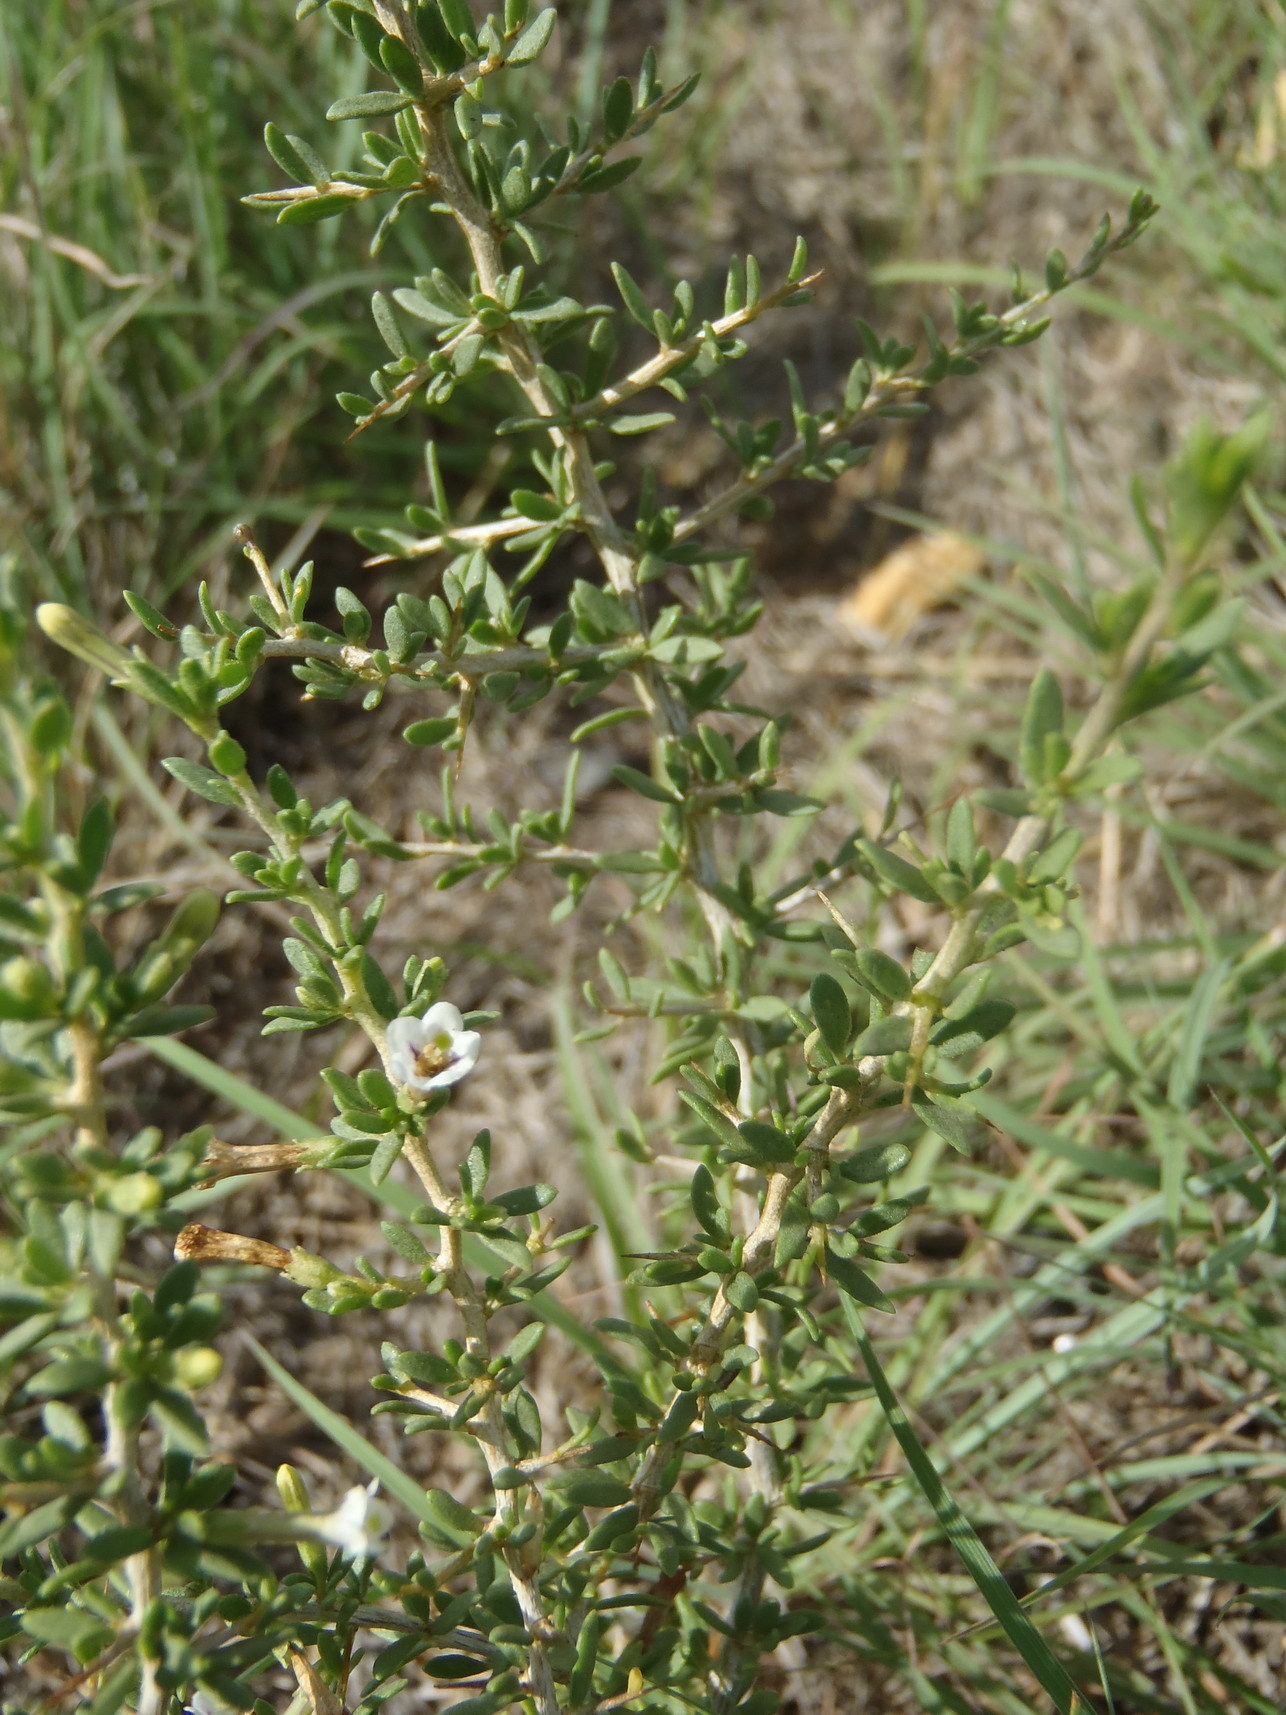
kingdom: Plantae
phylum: Tracheophyta
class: Magnoliopsida
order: Solanales
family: Solanaceae
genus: Lycium
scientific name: Lycium cinereum
